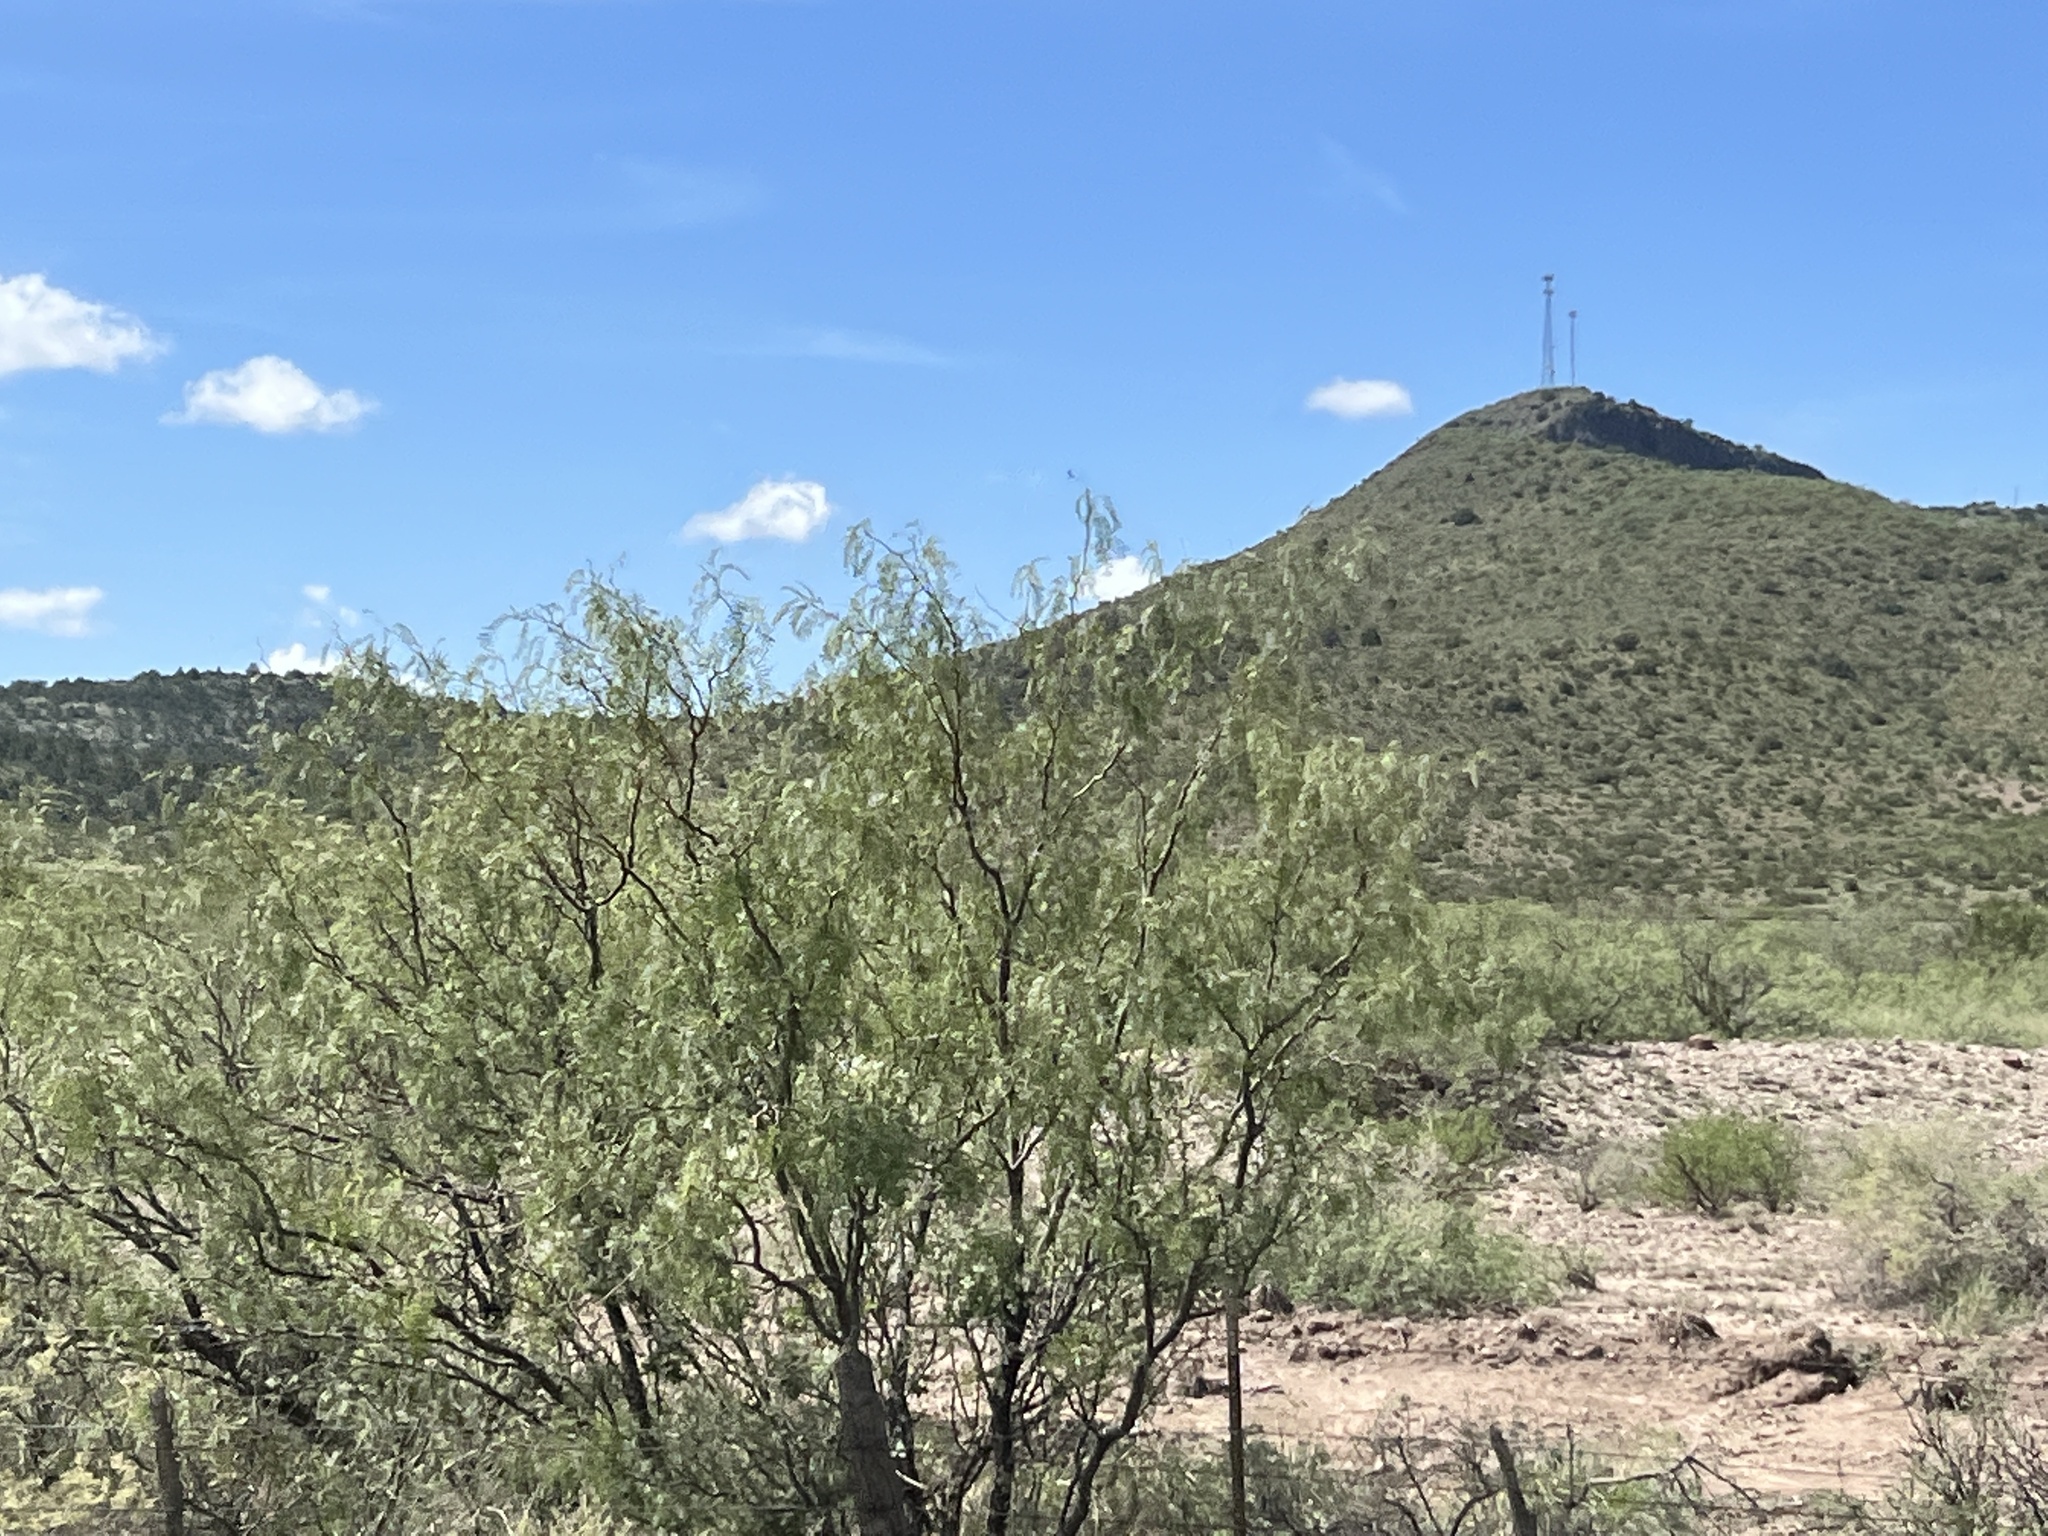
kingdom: Plantae
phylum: Tracheophyta
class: Magnoliopsida
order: Fabales
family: Fabaceae
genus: Prosopis
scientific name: Prosopis glandulosa
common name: Honey mesquite
